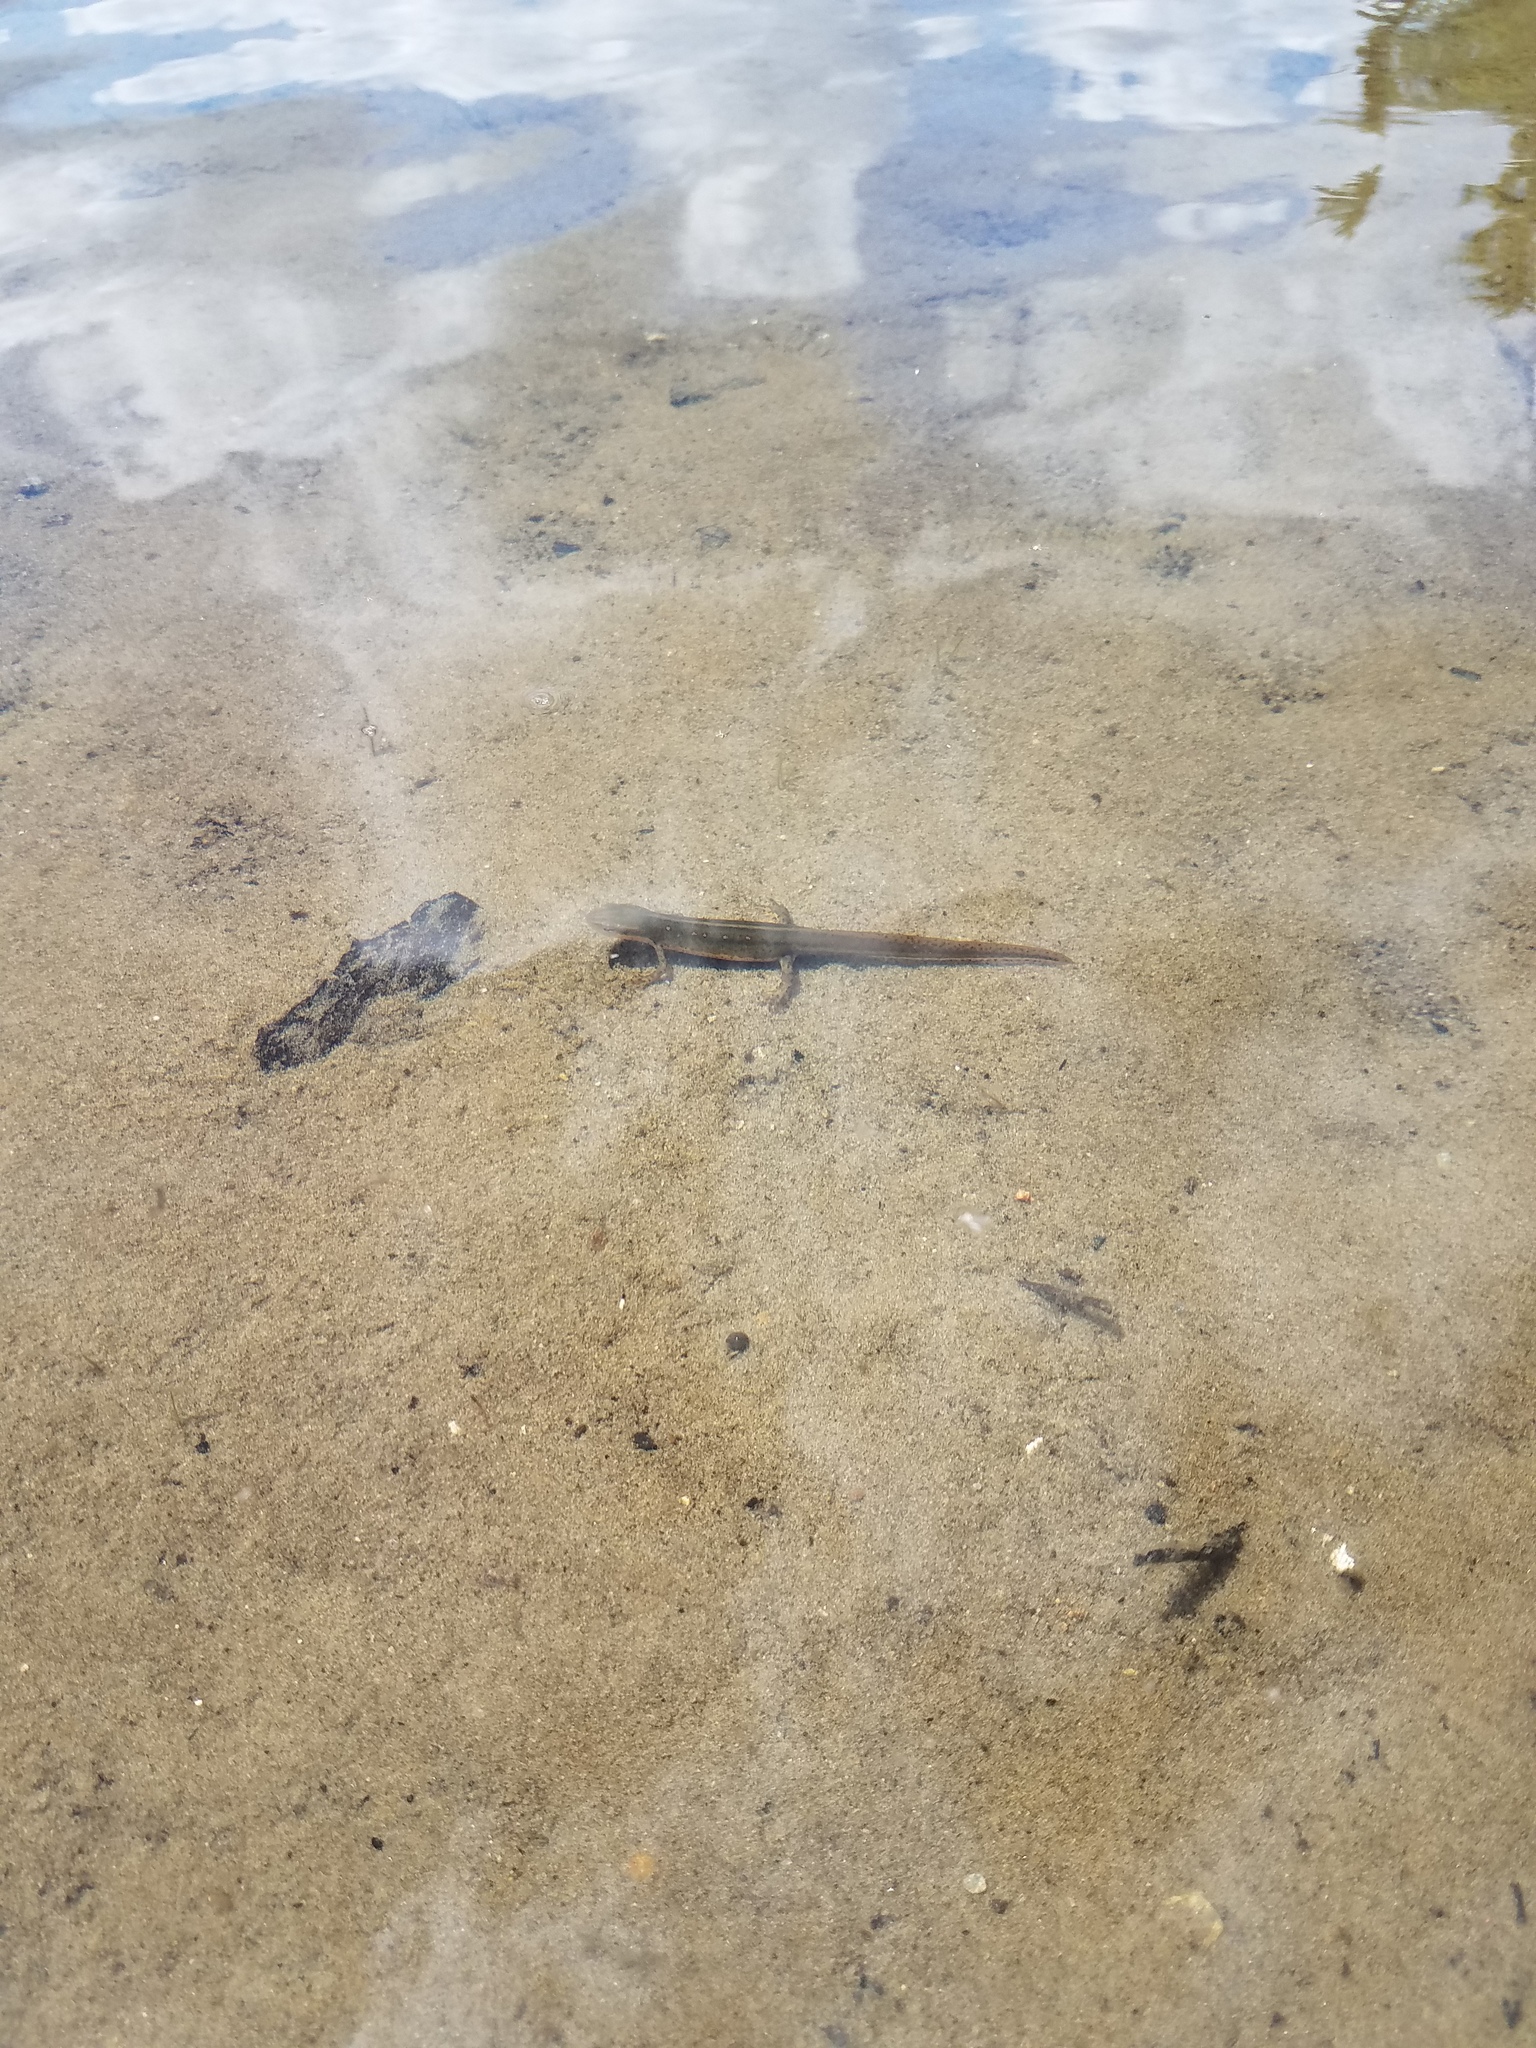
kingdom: Animalia
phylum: Chordata
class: Amphibia
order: Caudata
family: Salamandridae
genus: Notophthalmus
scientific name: Notophthalmus viridescens
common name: Eastern newt
